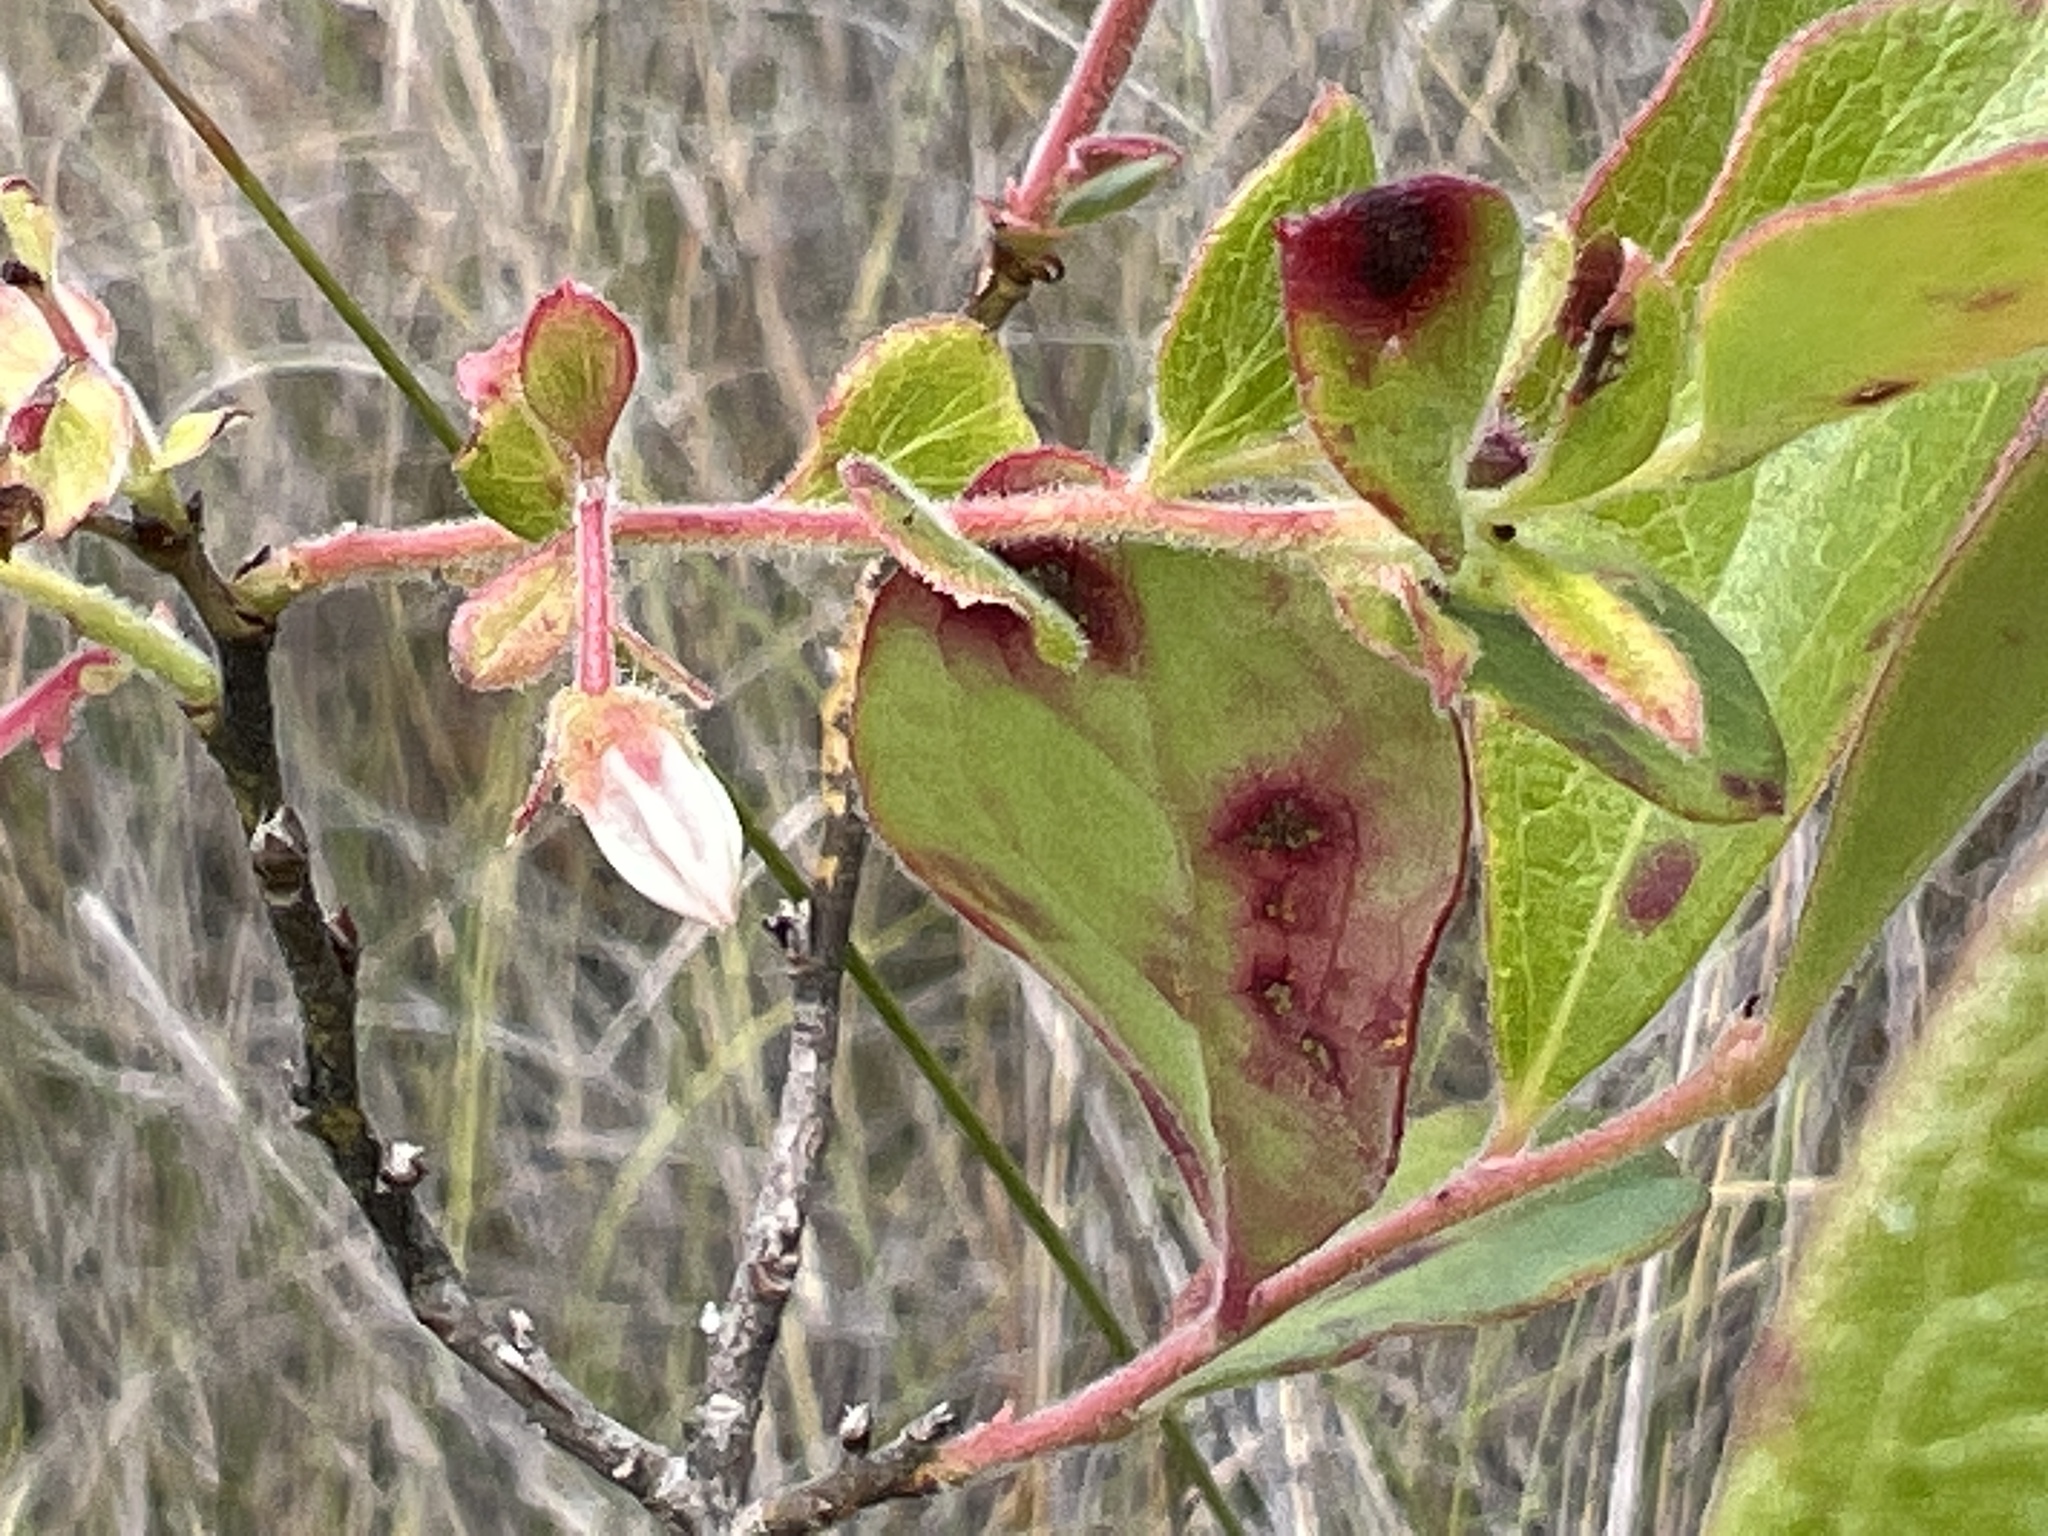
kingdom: Plantae
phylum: Tracheophyta
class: Magnoliopsida
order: Ericales
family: Ericaceae
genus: Gaylussacia
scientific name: Gaylussacia mosieri
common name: Hirsute huckleberry
